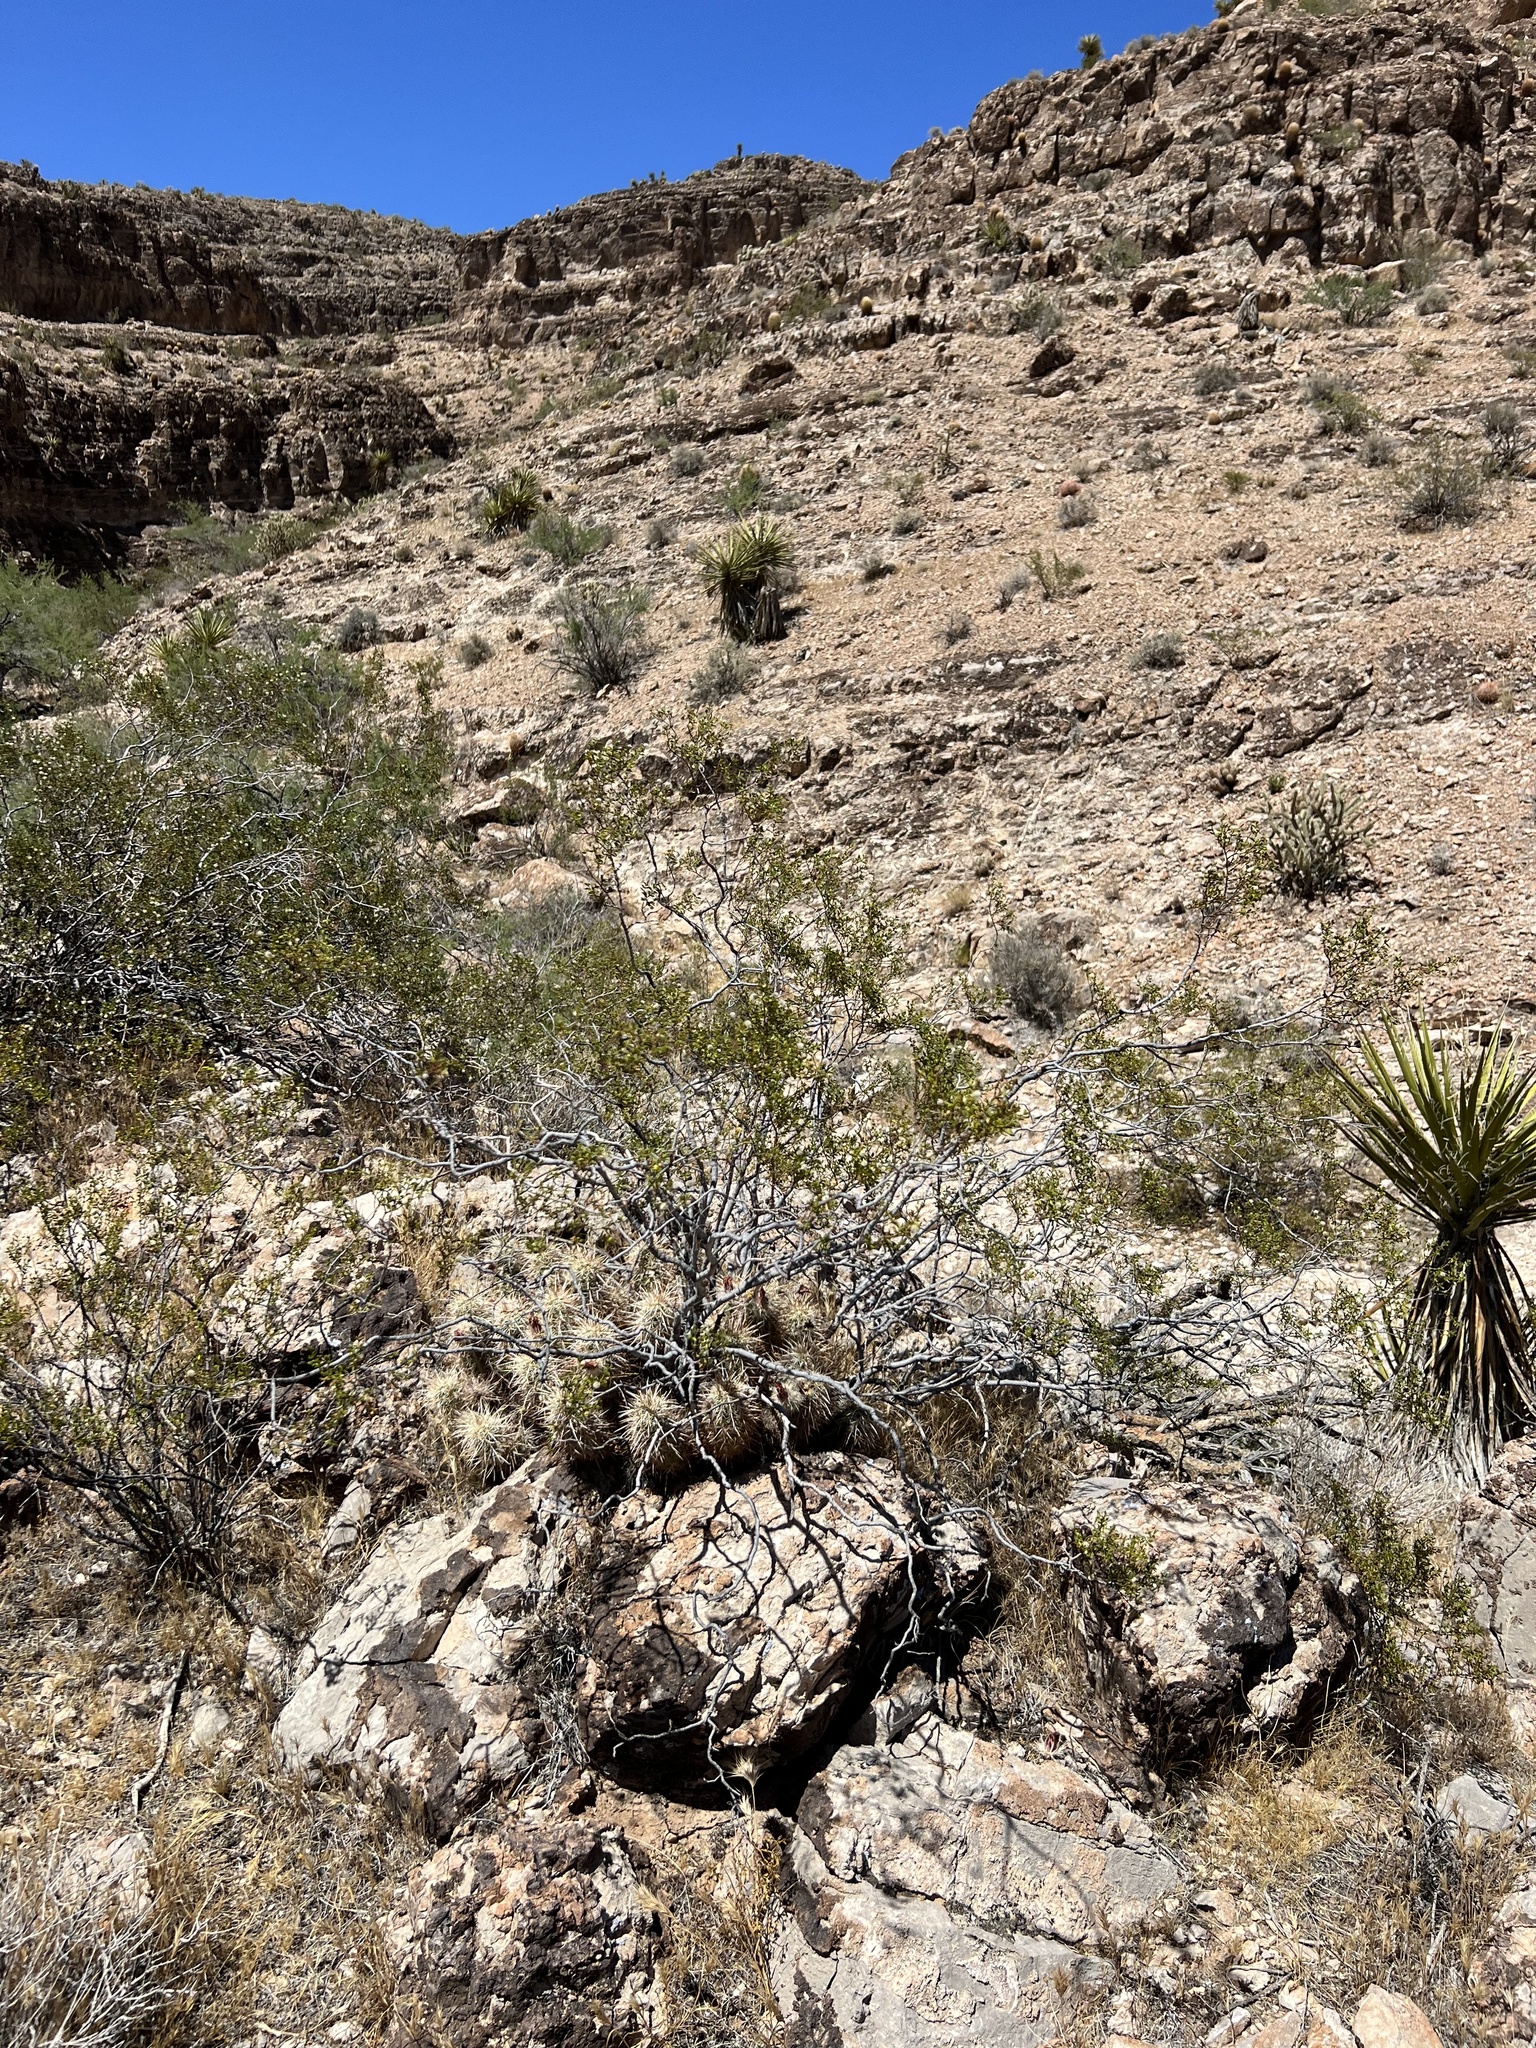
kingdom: Plantae
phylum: Tracheophyta
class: Magnoliopsida
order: Zygophyllales
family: Zygophyllaceae
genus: Larrea
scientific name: Larrea tridentata
